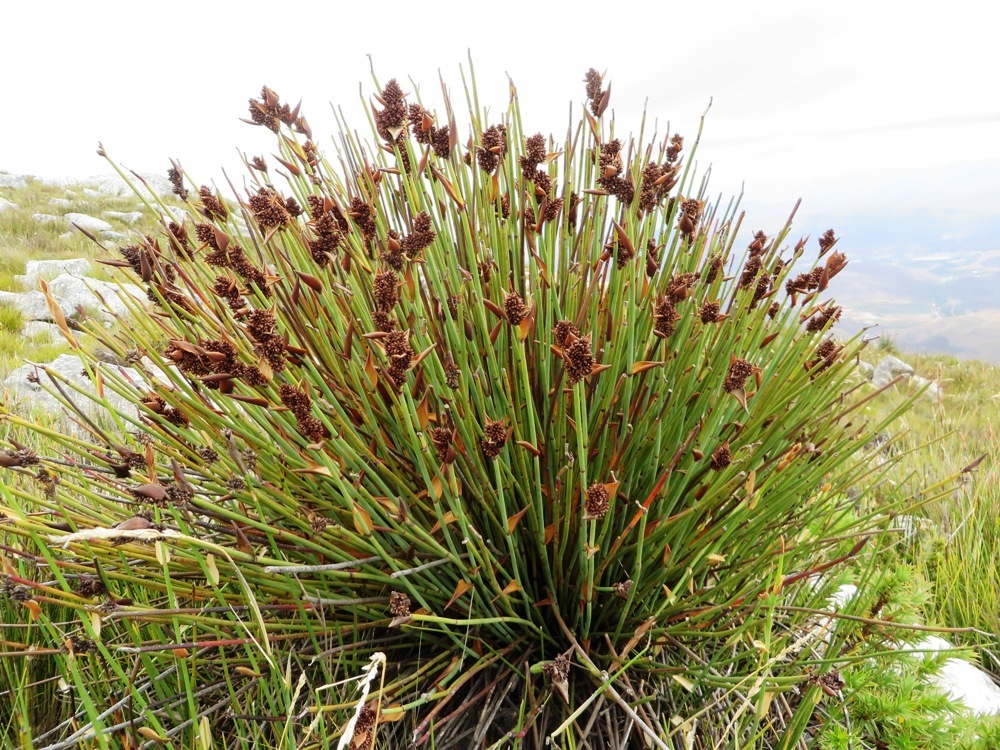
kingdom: Plantae
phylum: Tracheophyta
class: Liliopsida
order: Poales
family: Restionaceae
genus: Elegia
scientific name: Elegia ebracteata
